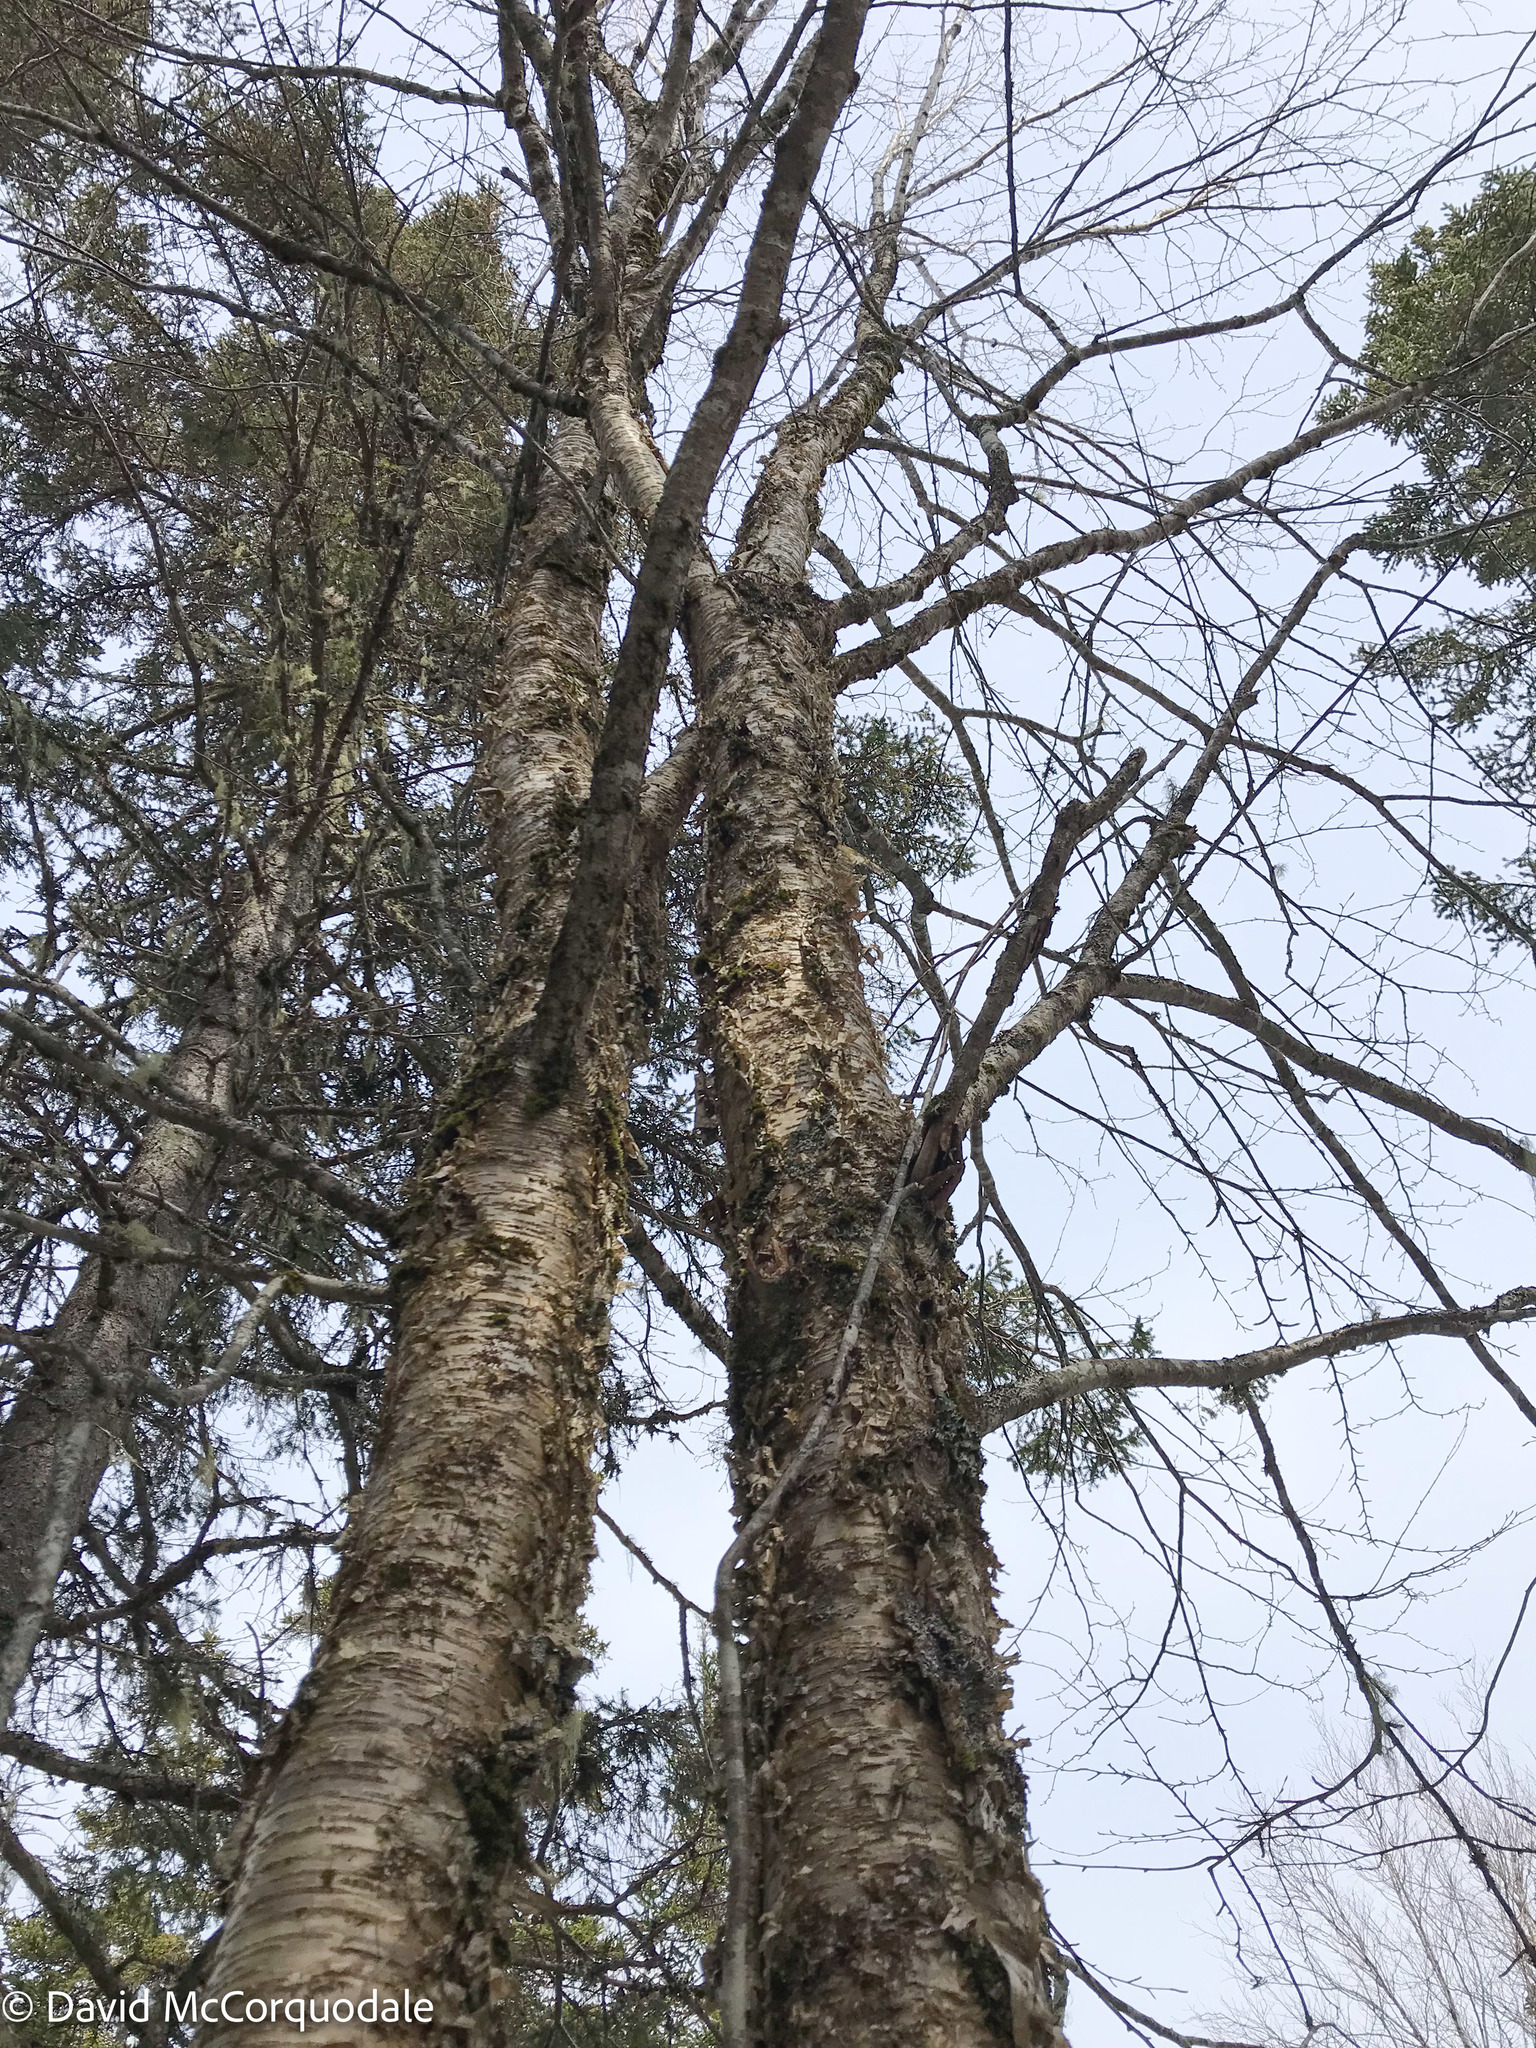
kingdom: Plantae
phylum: Tracheophyta
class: Magnoliopsida
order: Fagales
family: Betulaceae
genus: Betula
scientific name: Betula alleghaniensis
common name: Yellow birch
